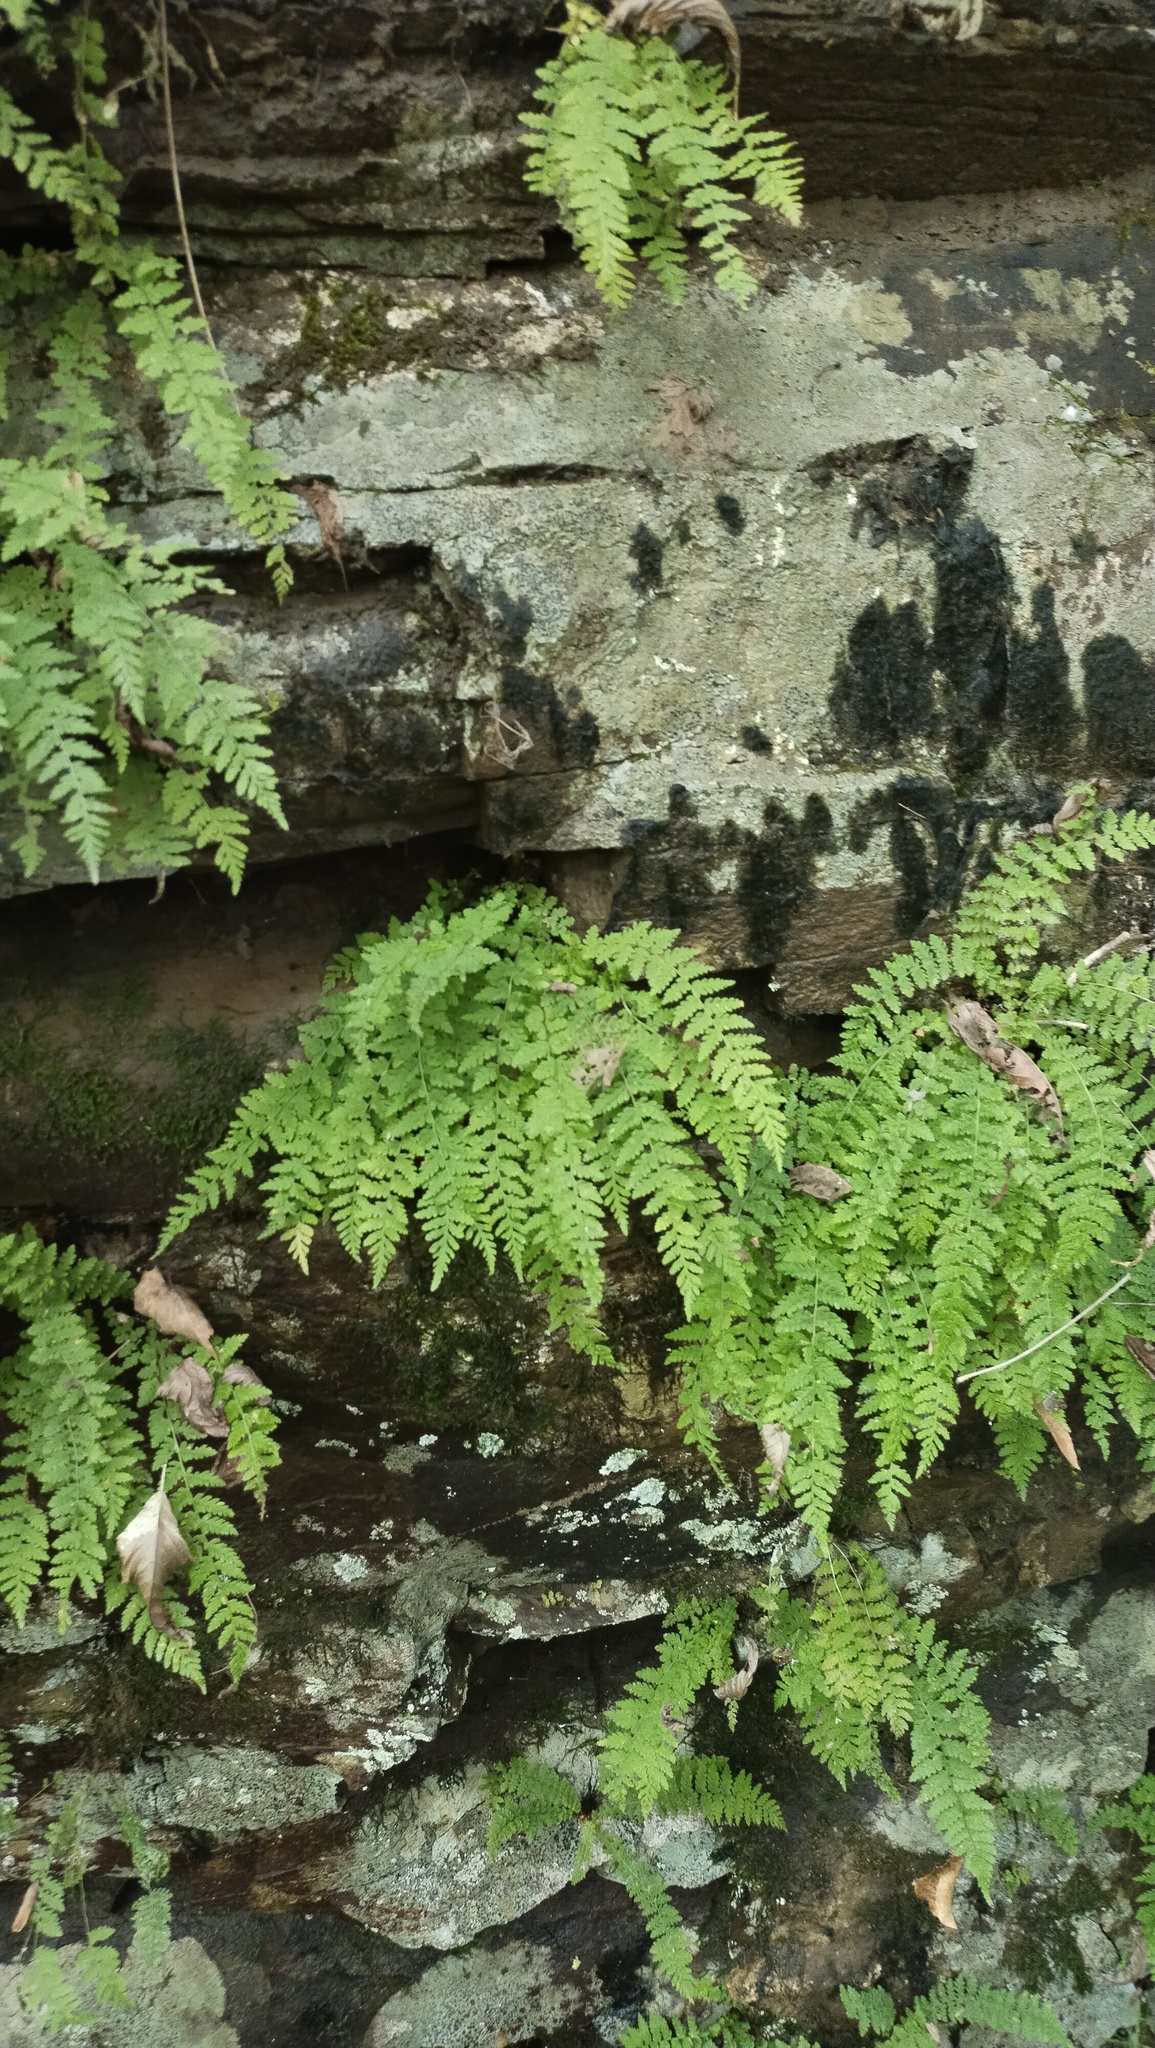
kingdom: Plantae
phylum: Tracheophyta
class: Polypodiopsida
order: Polypodiales
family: Woodsiaceae
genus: Physematium
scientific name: Physematium manchuriense
